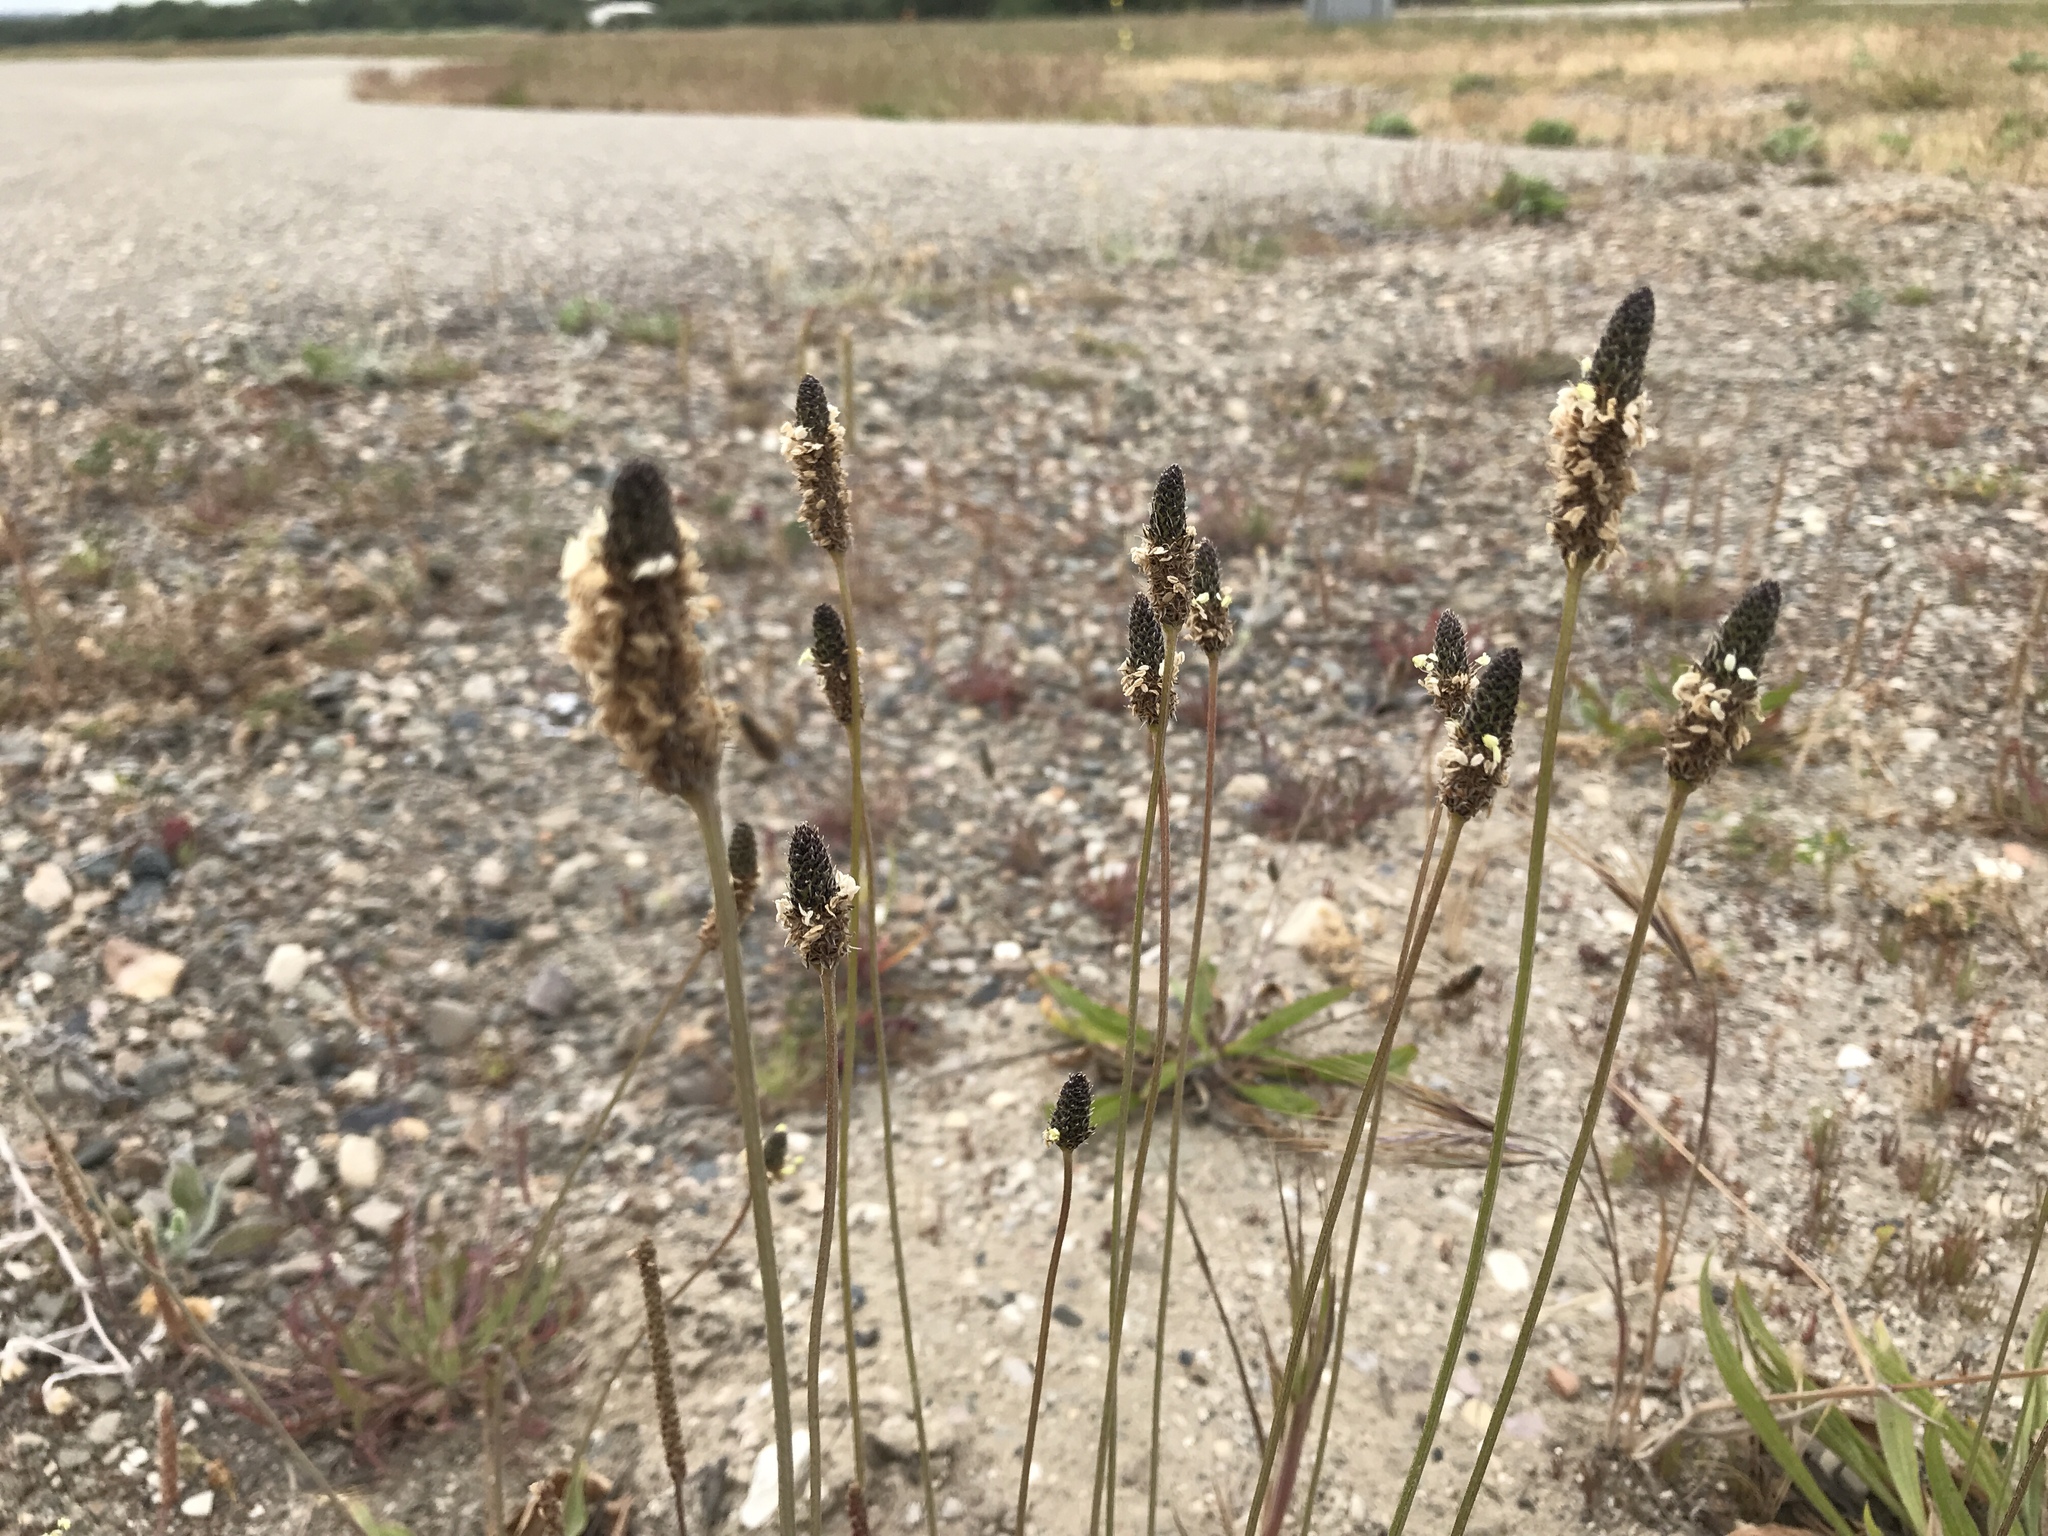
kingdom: Plantae
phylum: Tracheophyta
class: Magnoliopsida
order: Lamiales
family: Plantaginaceae
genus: Plantago
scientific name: Plantago lanceolata
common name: Ribwort plantain
